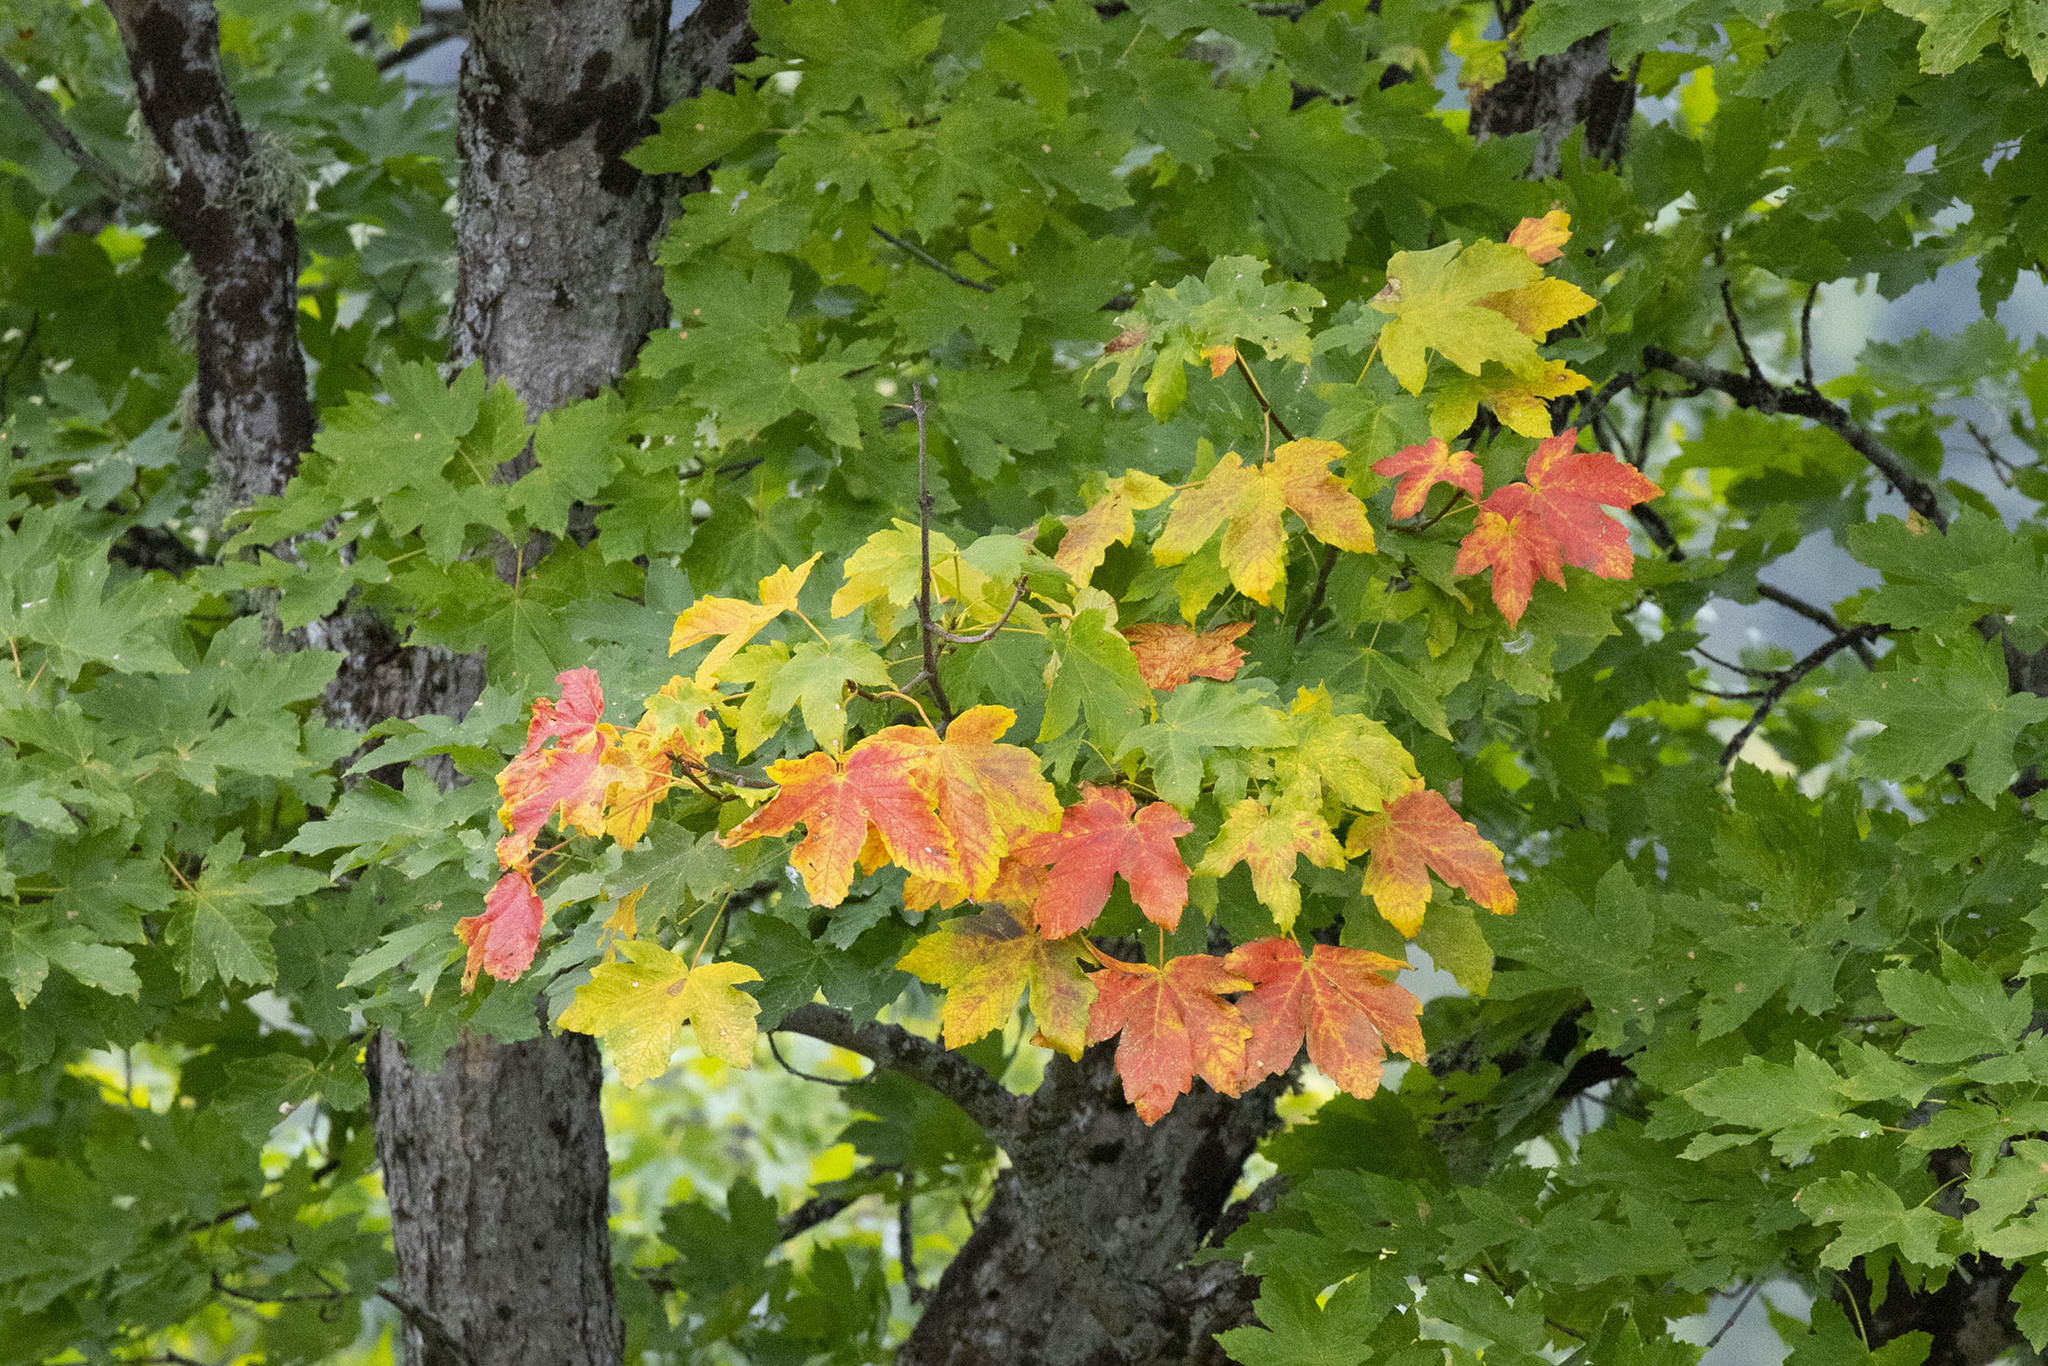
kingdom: Plantae
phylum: Tracheophyta
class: Magnoliopsida
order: Sapindales
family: Sapindaceae
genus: Acer
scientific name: Acer pseudoplatanus
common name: Sycamore
